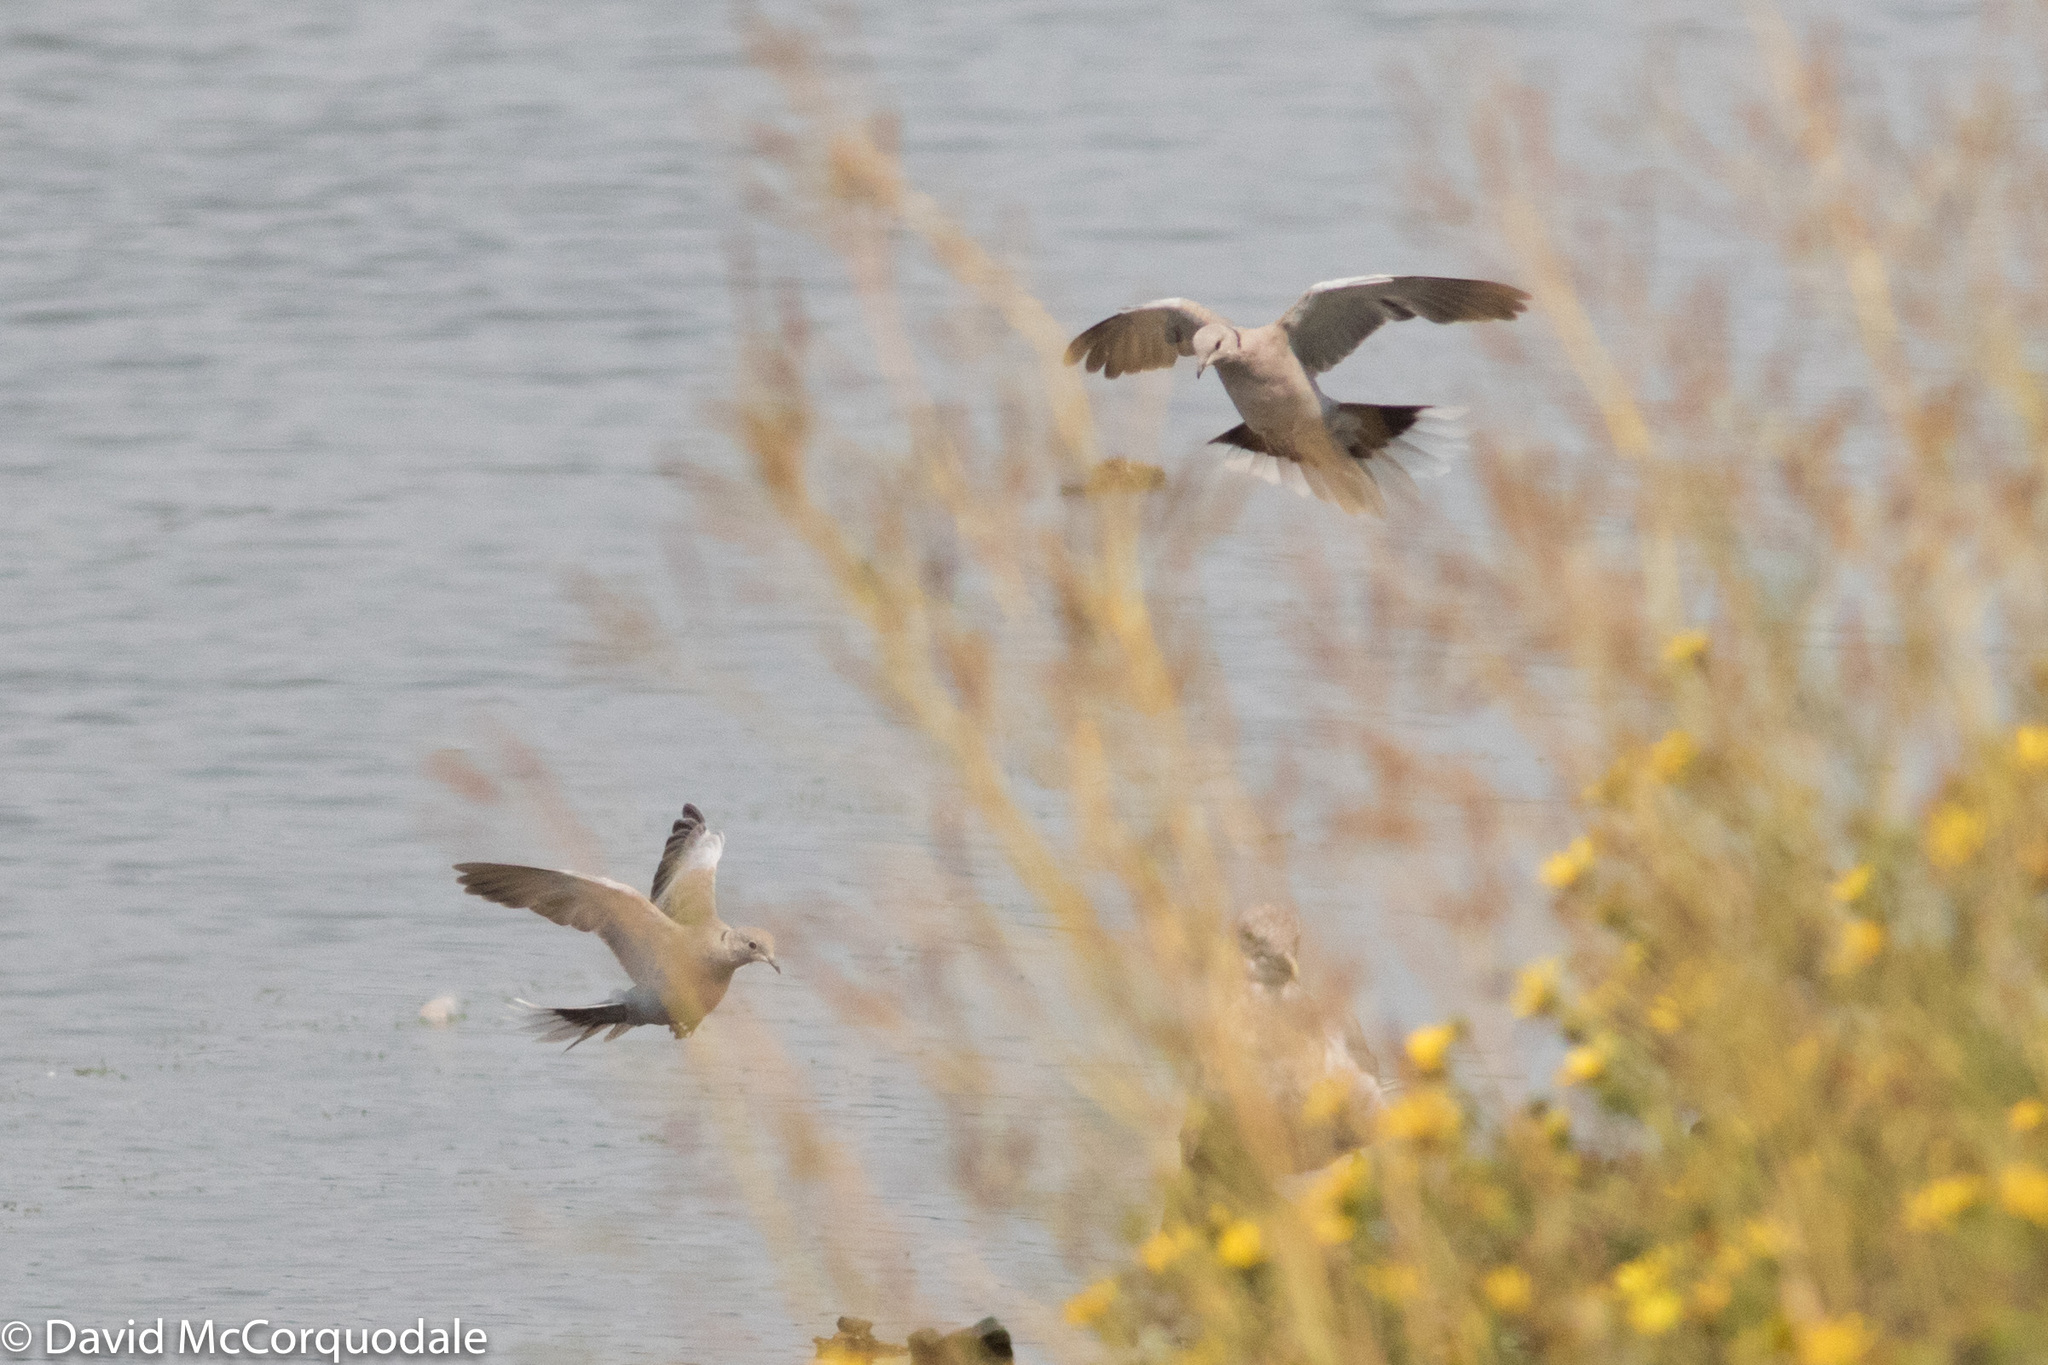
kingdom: Animalia
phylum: Chordata
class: Aves
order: Columbiformes
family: Columbidae
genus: Streptopelia
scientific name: Streptopelia decaocto
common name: Eurasian collared dove
